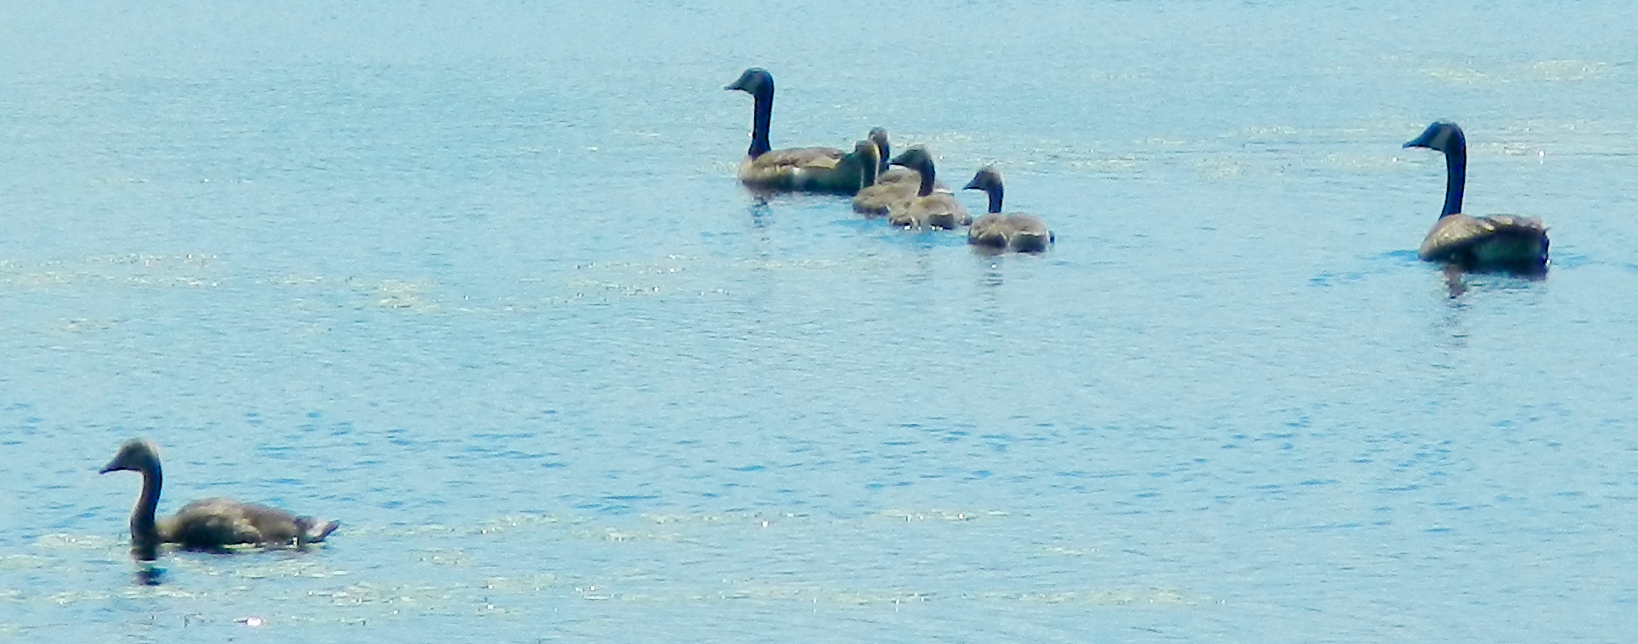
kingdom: Animalia
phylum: Chordata
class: Aves
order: Anseriformes
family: Anatidae
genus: Branta
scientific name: Branta canadensis
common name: Canada goose
